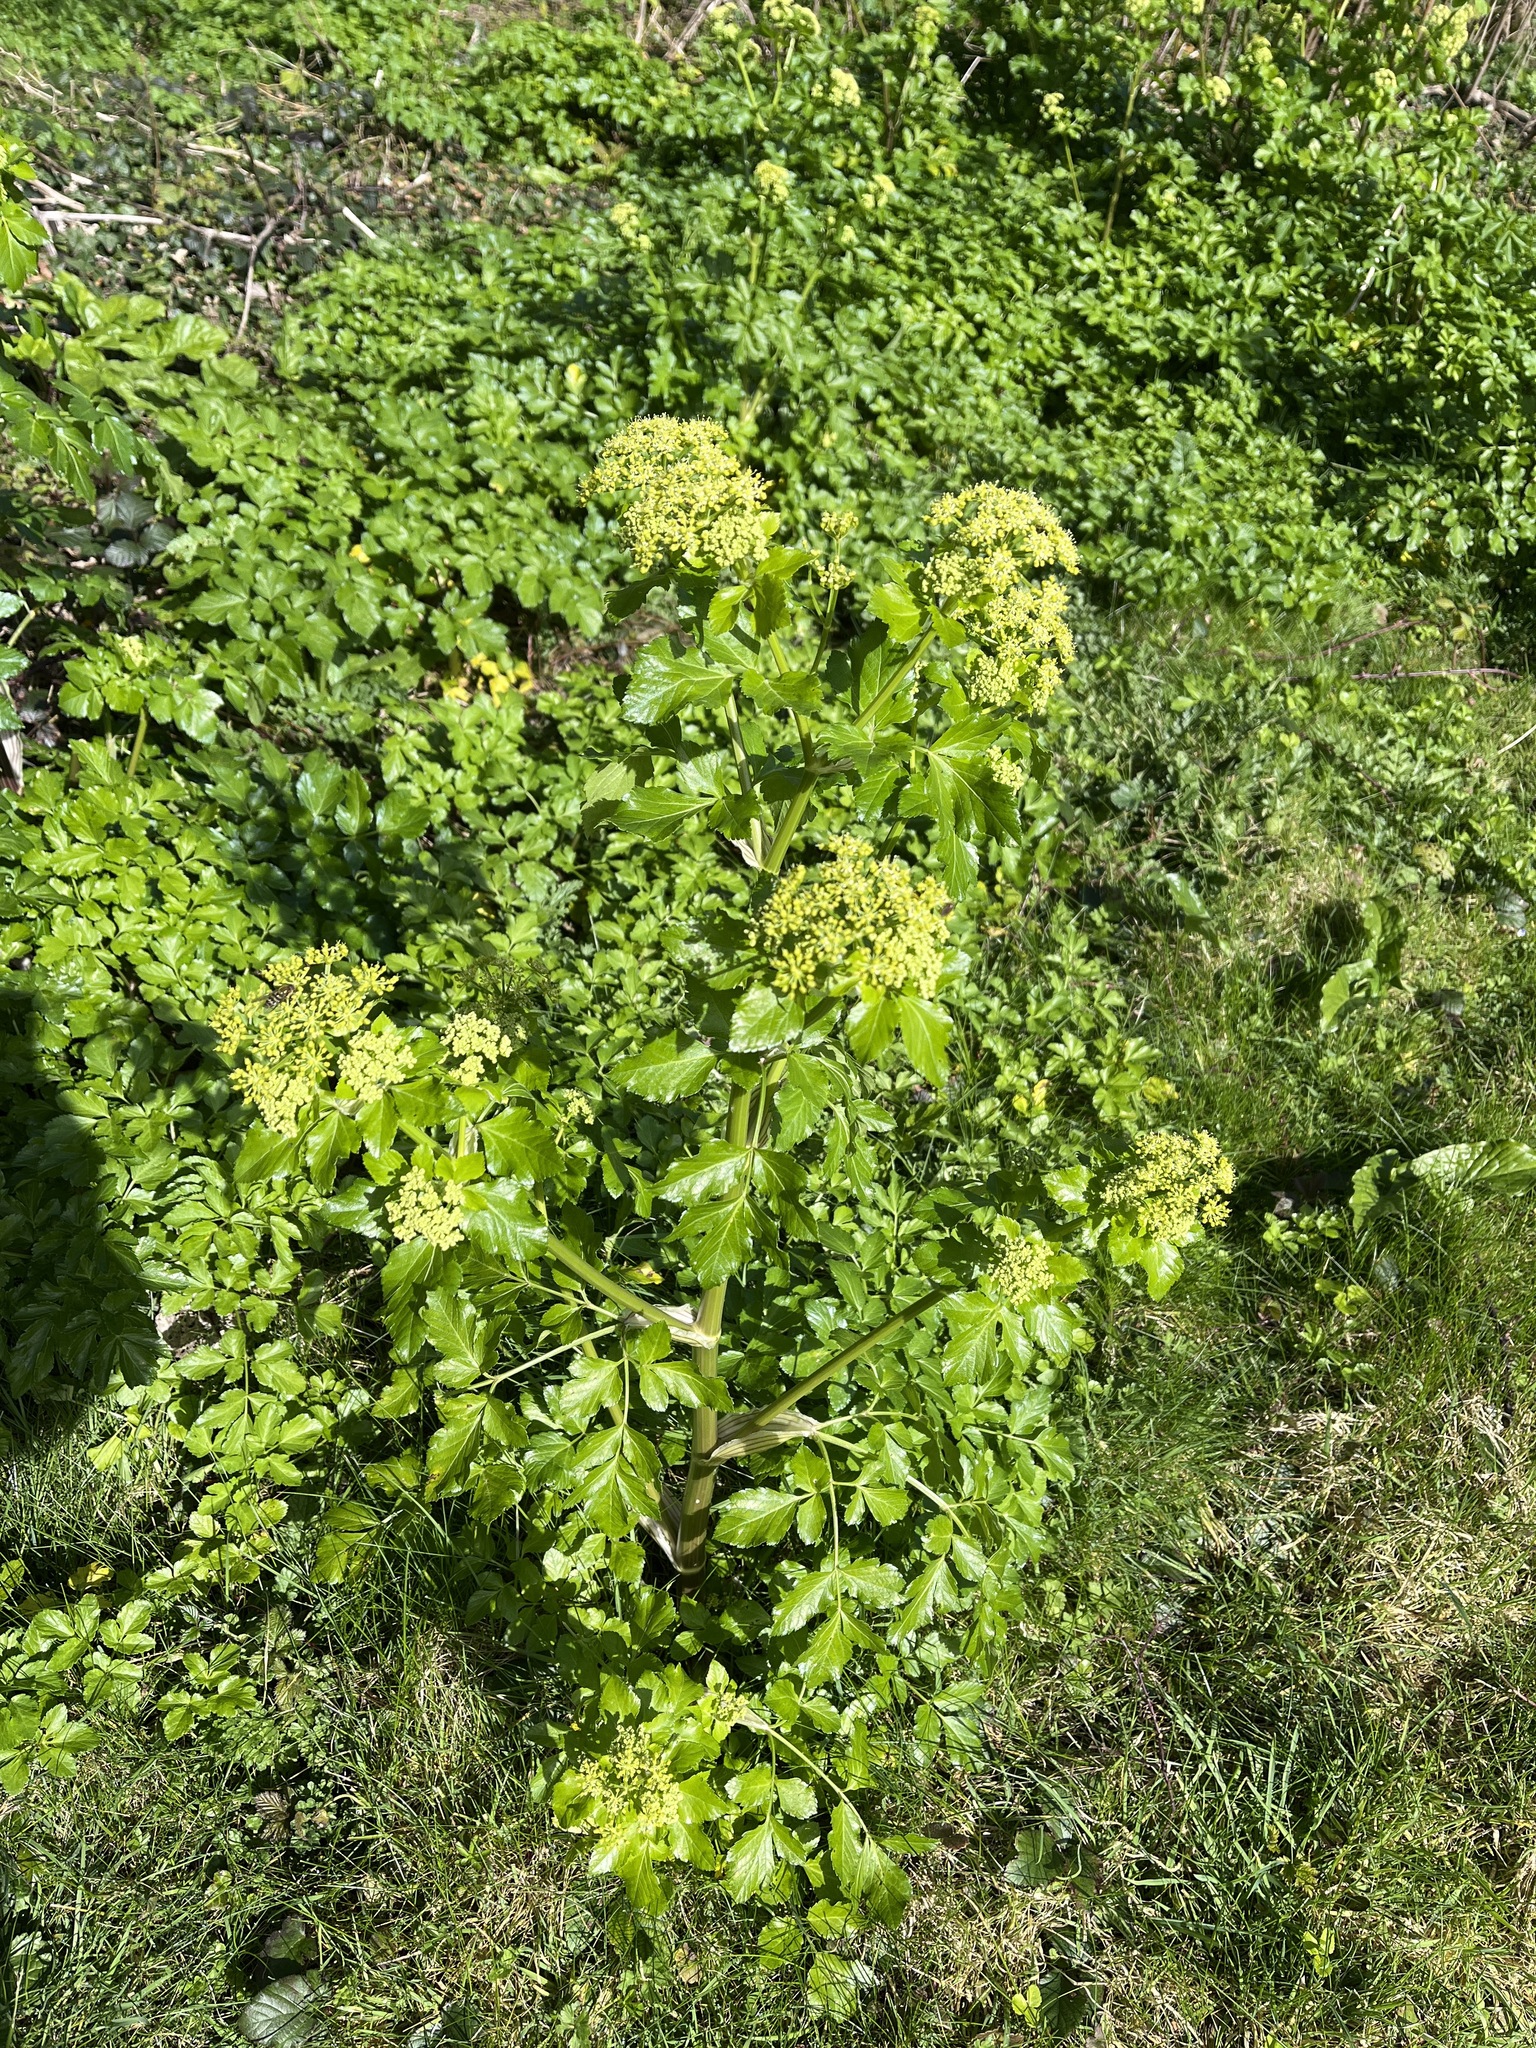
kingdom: Plantae
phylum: Tracheophyta
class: Magnoliopsida
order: Apiales
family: Apiaceae
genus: Smyrnium
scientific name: Smyrnium olusatrum
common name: Alexanders
